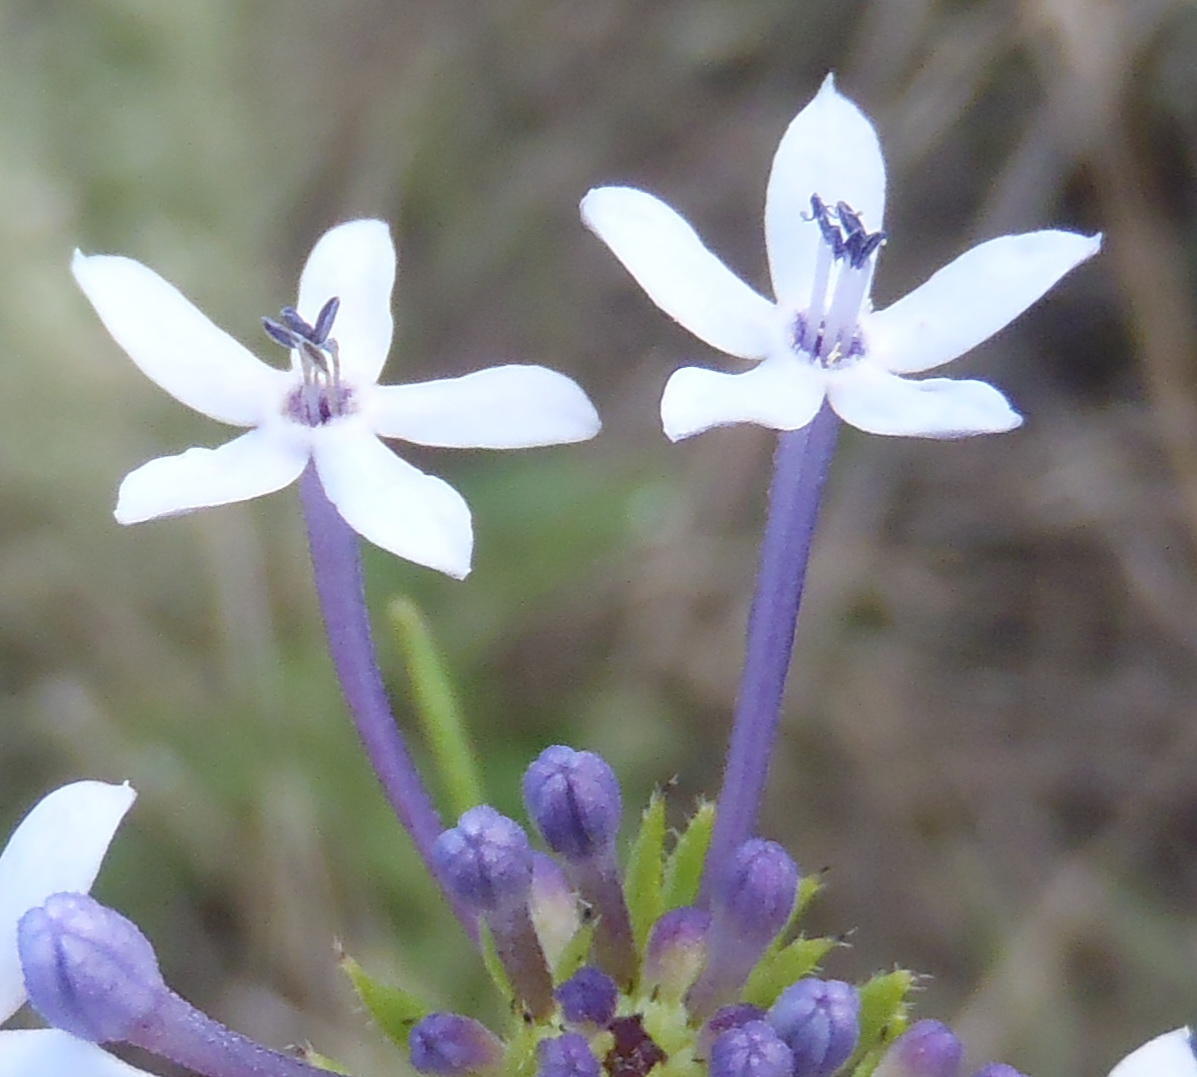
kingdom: Plantae
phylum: Tracheophyta
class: Magnoliopsida
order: Gentianales
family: Rubiaceae
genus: Pentanisia
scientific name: Pentanisia angustifolia
